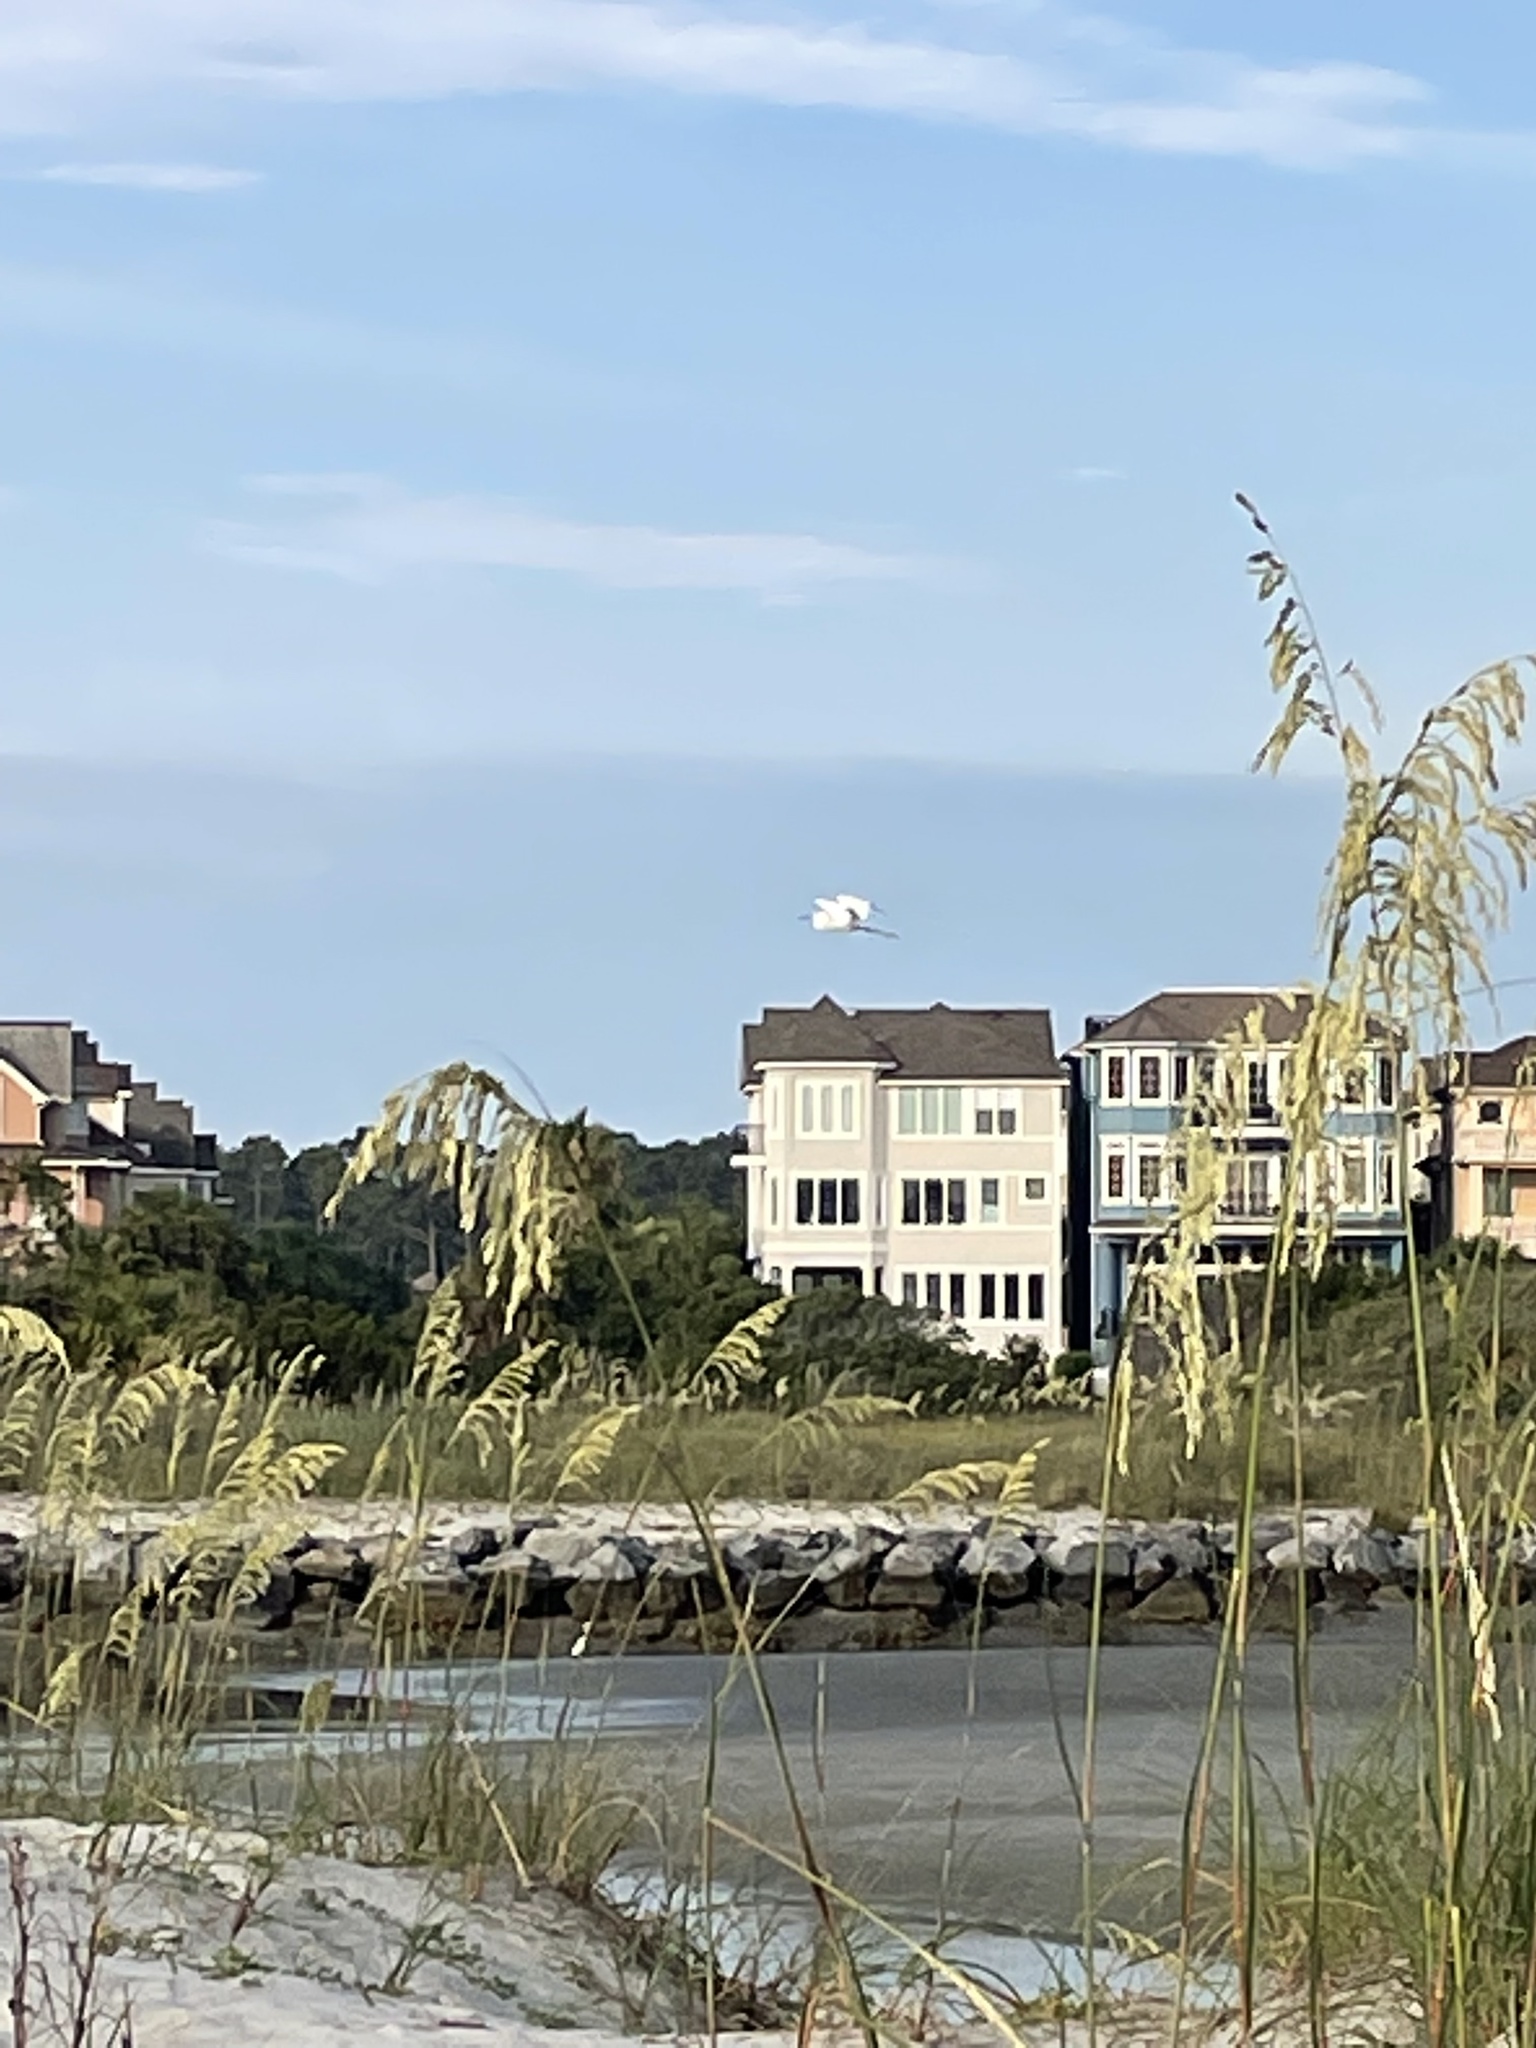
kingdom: Animalia
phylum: Chordata
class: Aves
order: Pelecaniformes
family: Ardeidae
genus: Egretta
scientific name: Egretta thula
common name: Snowy egret
